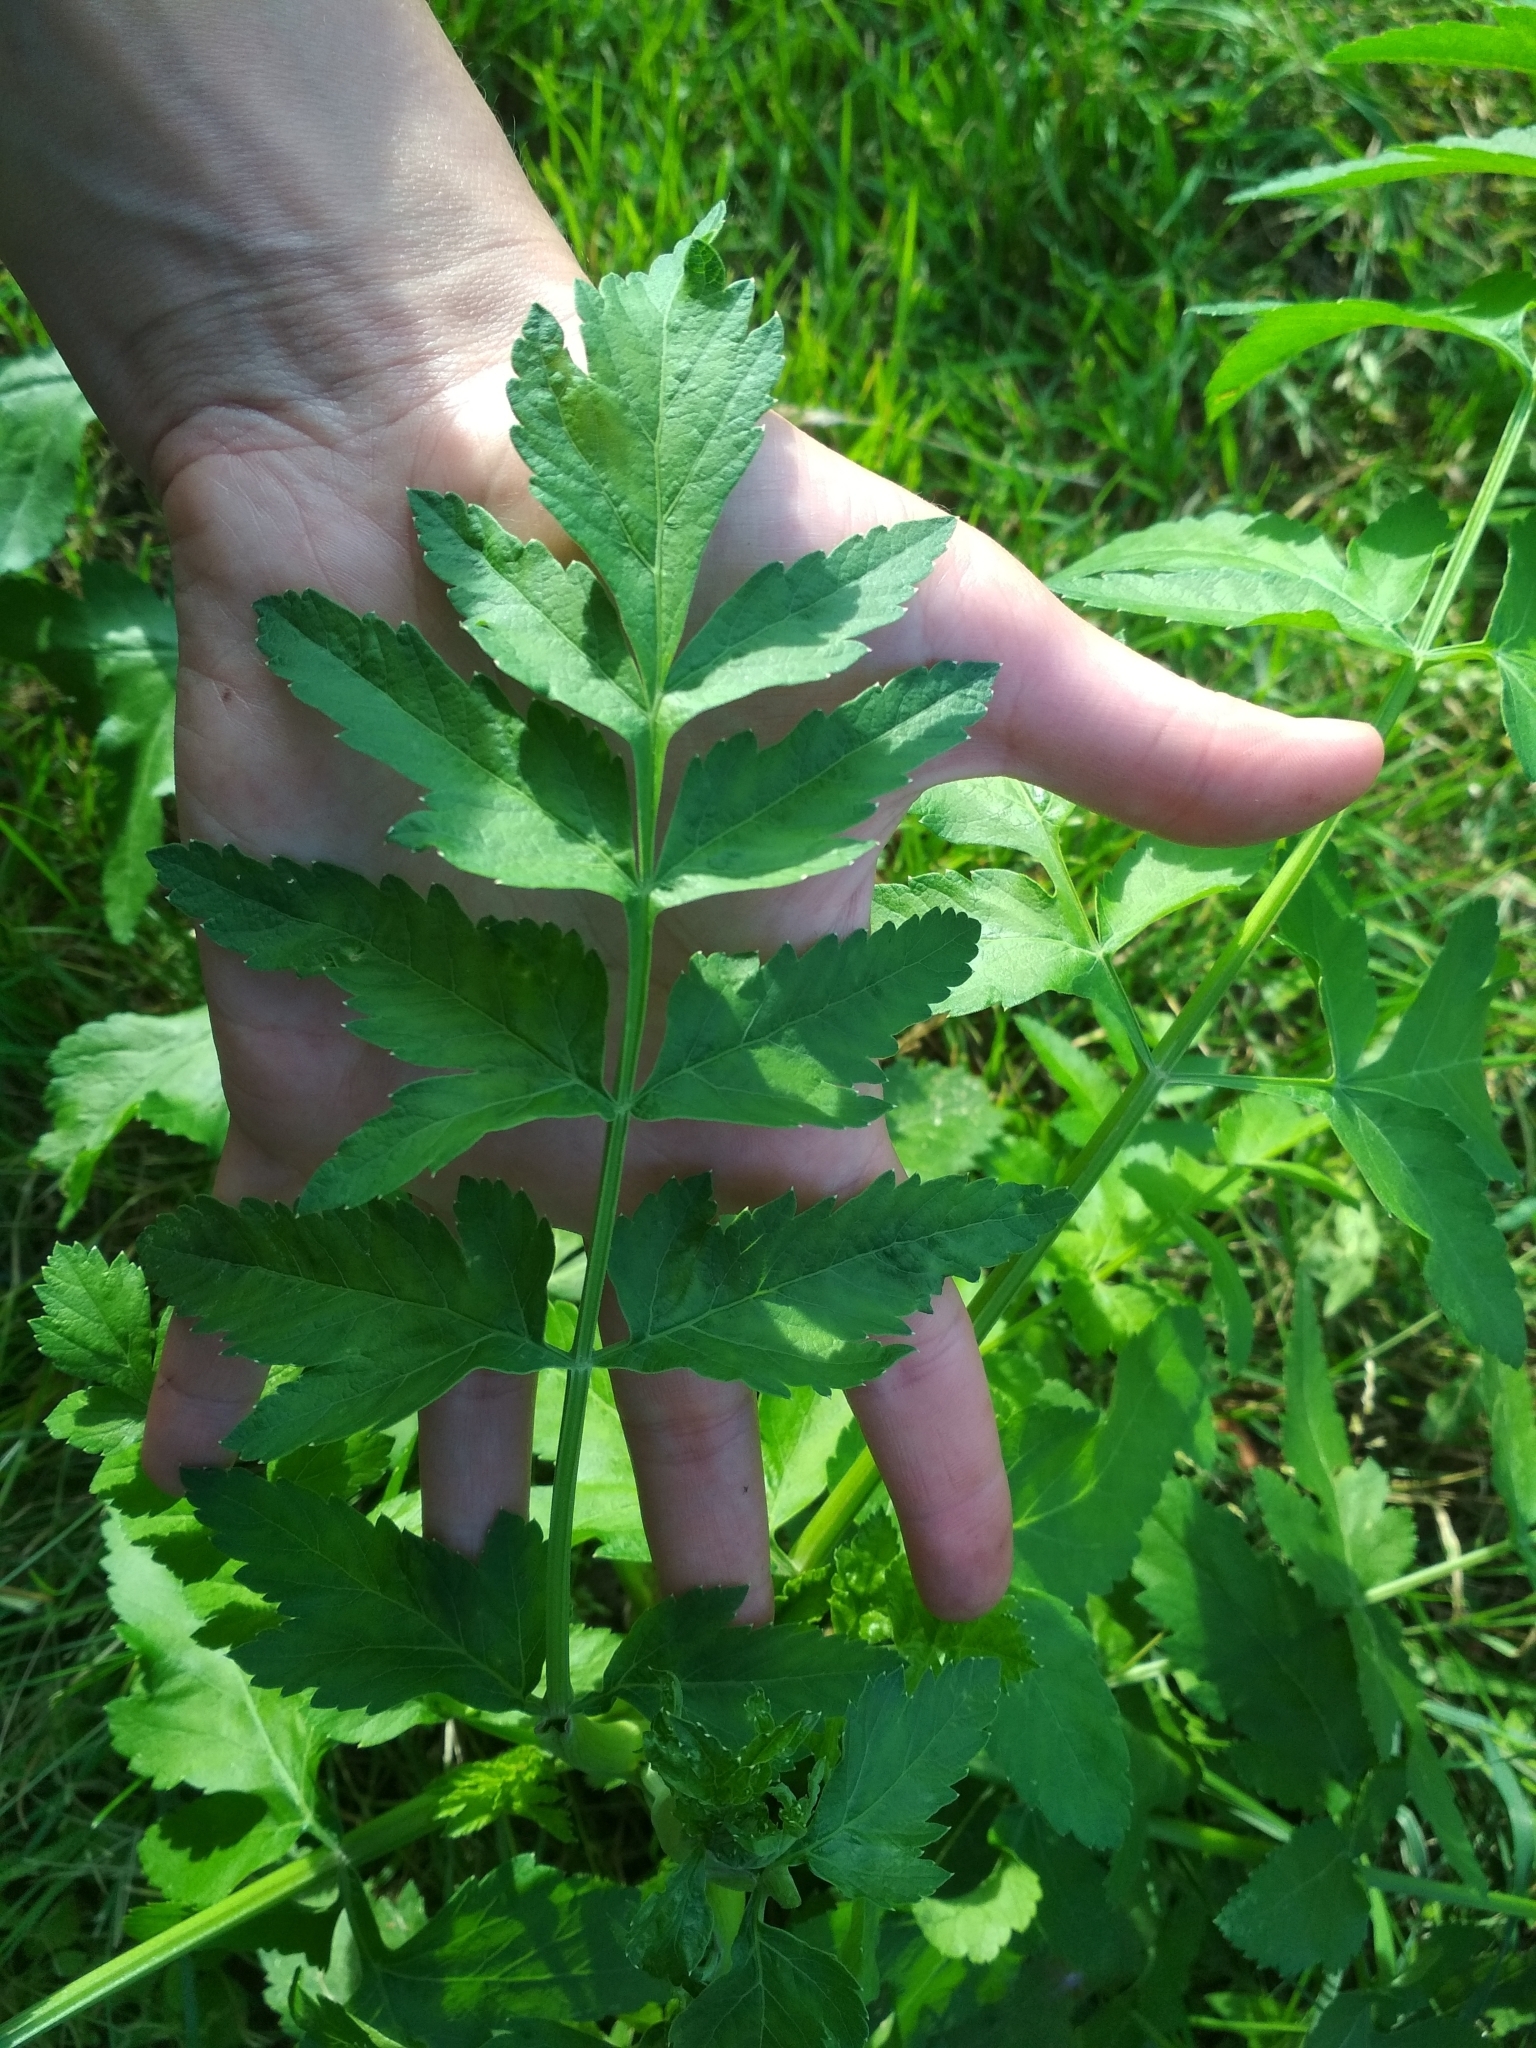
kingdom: Plantae
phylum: Tracheophyta
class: Magnoliopsida
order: Apiales
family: Apiaceae
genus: Pastinaca
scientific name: Pastinaca sativa
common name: Wild parsnip
